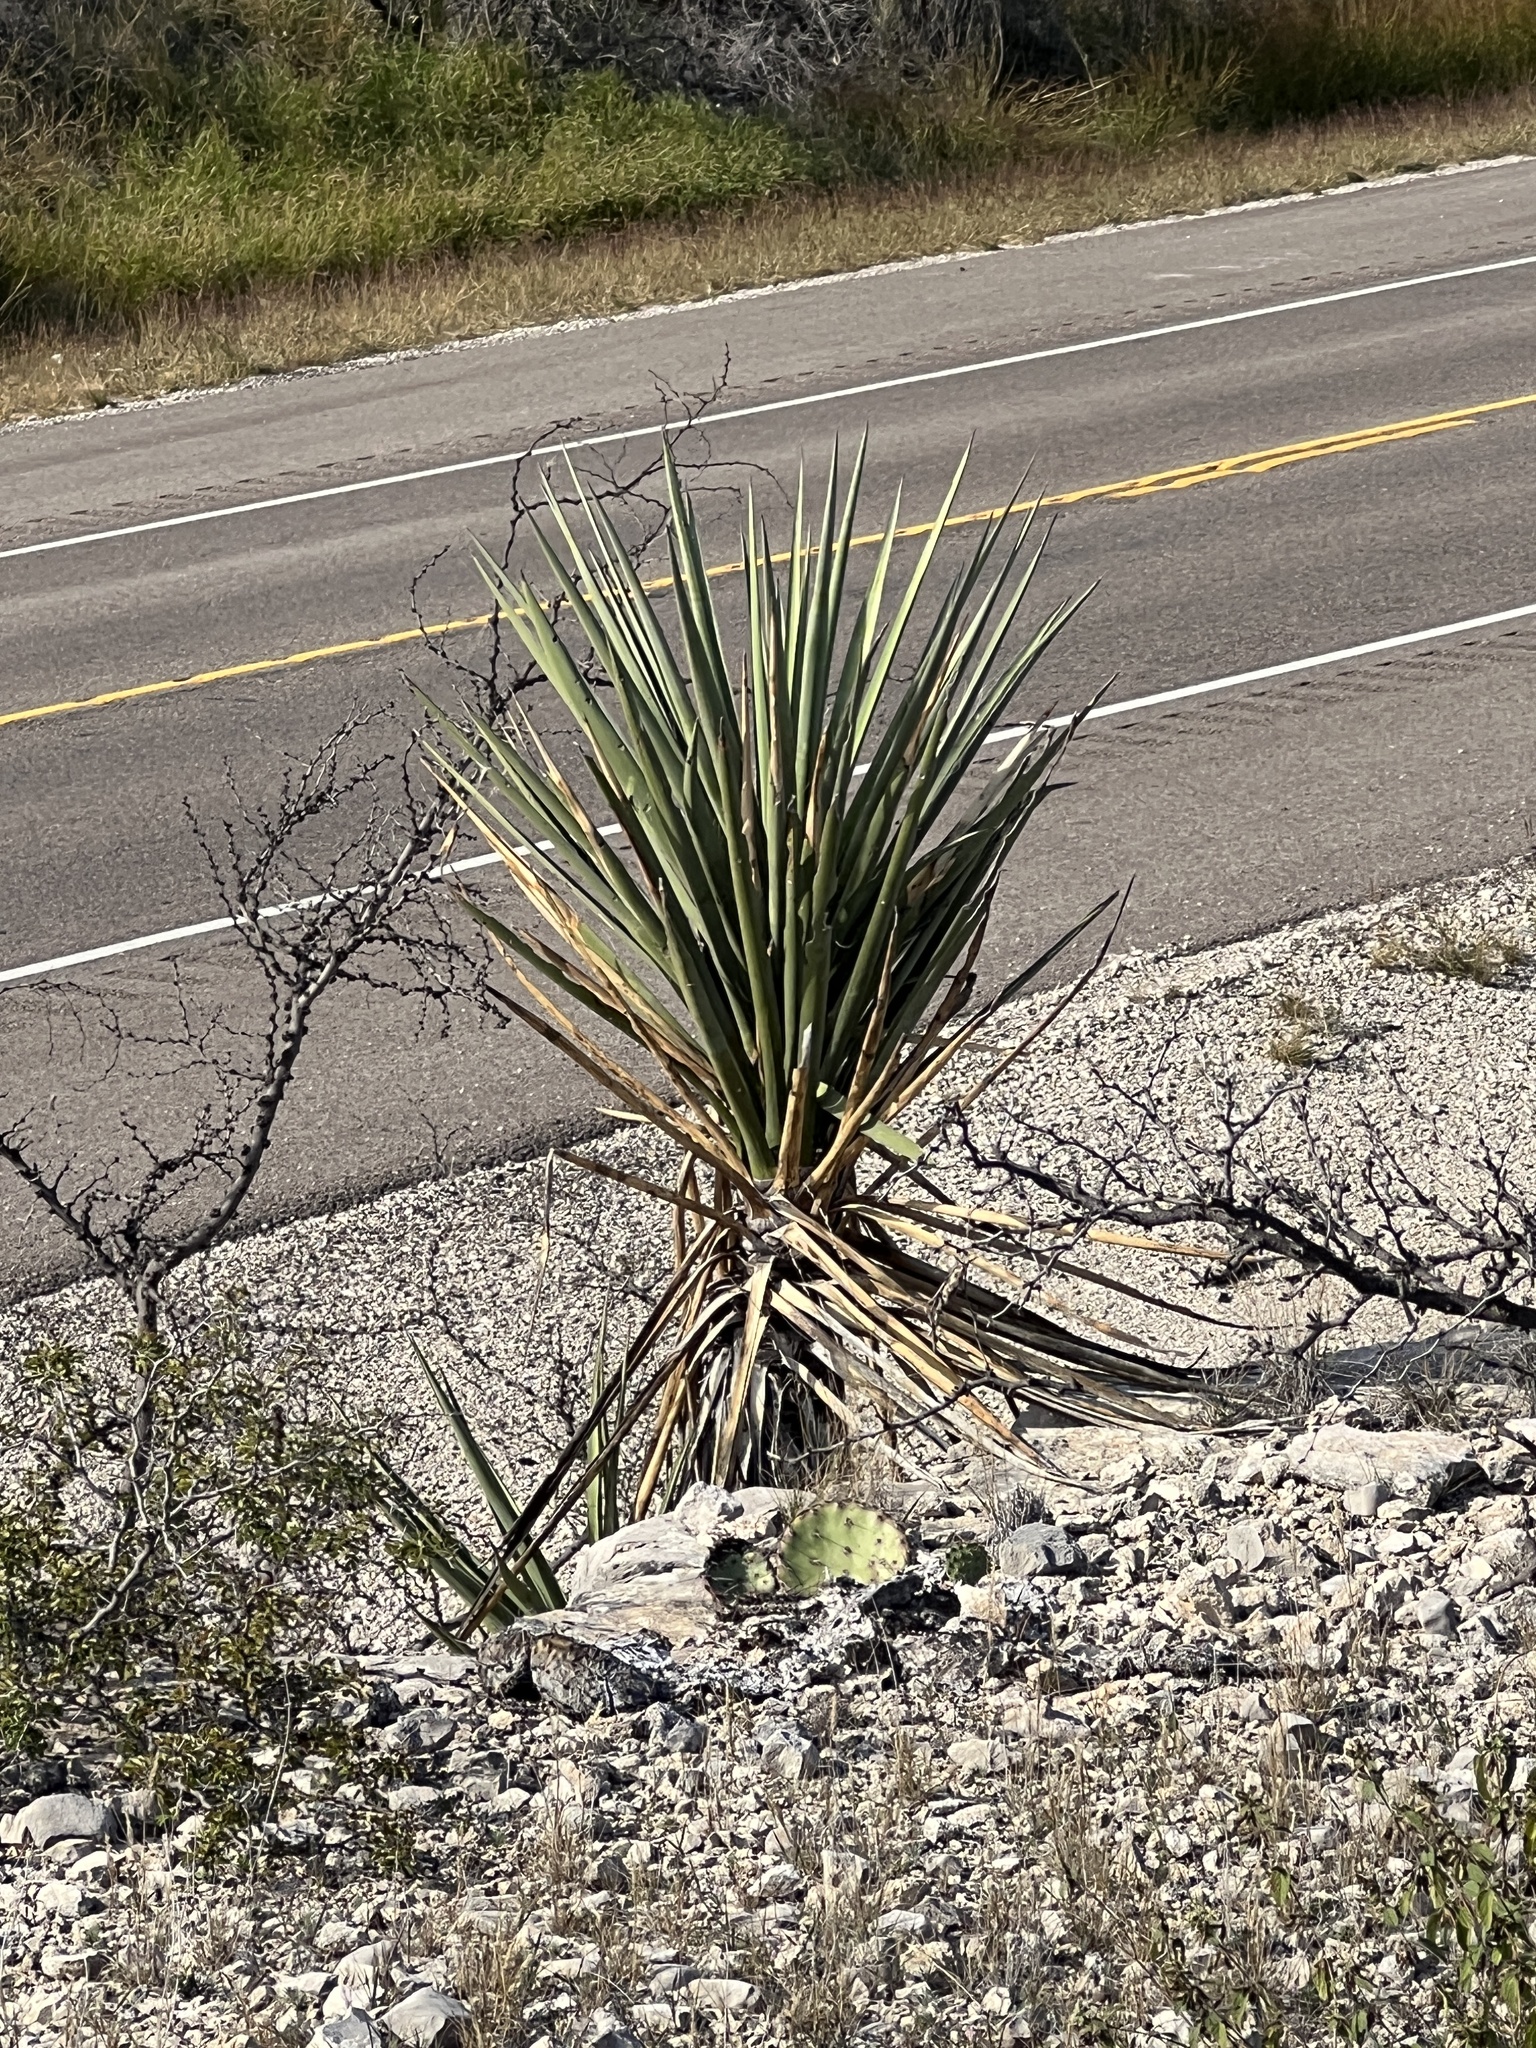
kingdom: Plantae
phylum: Tracheophyta
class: Liliopsida
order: Asparagales
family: Asparagaceae
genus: Yucca
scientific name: Yucca treculiana
